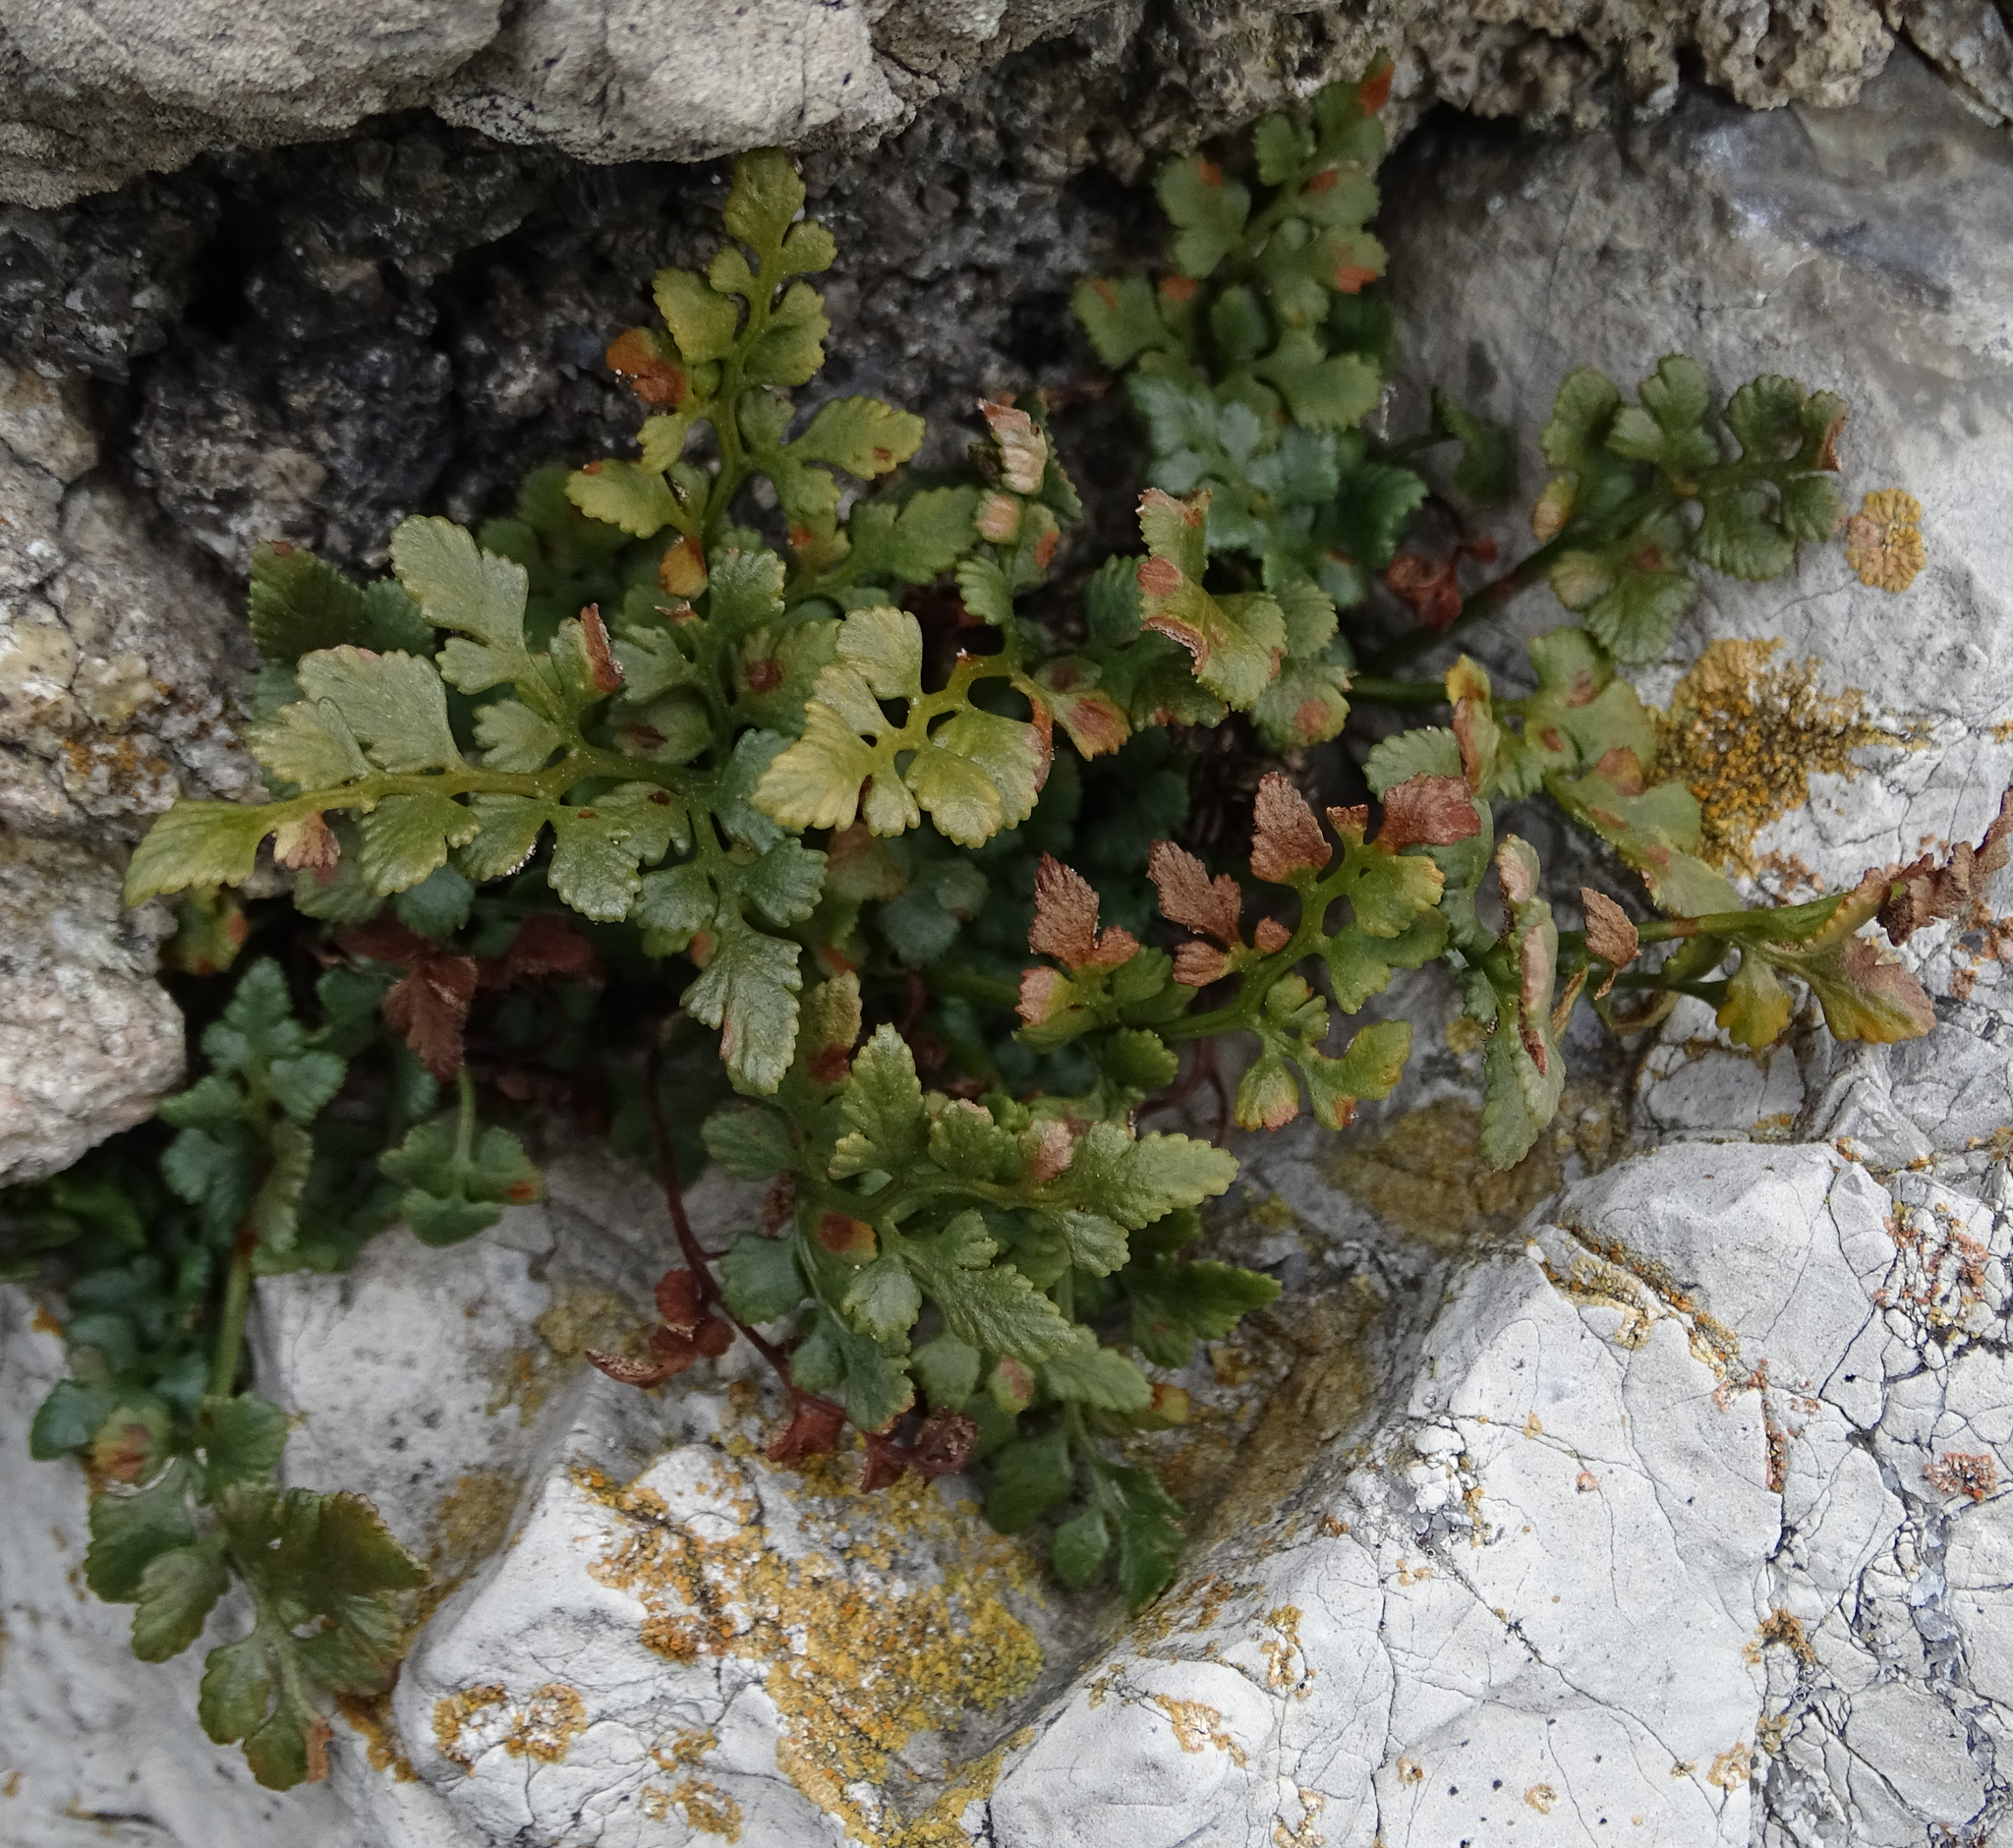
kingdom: Plantae
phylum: Tracheophyta
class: Polypodiopsida
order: Polypodiales
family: Aspleniaceae
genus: Asplenium
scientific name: Asplenium ruta-muraria
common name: Wall-rue
